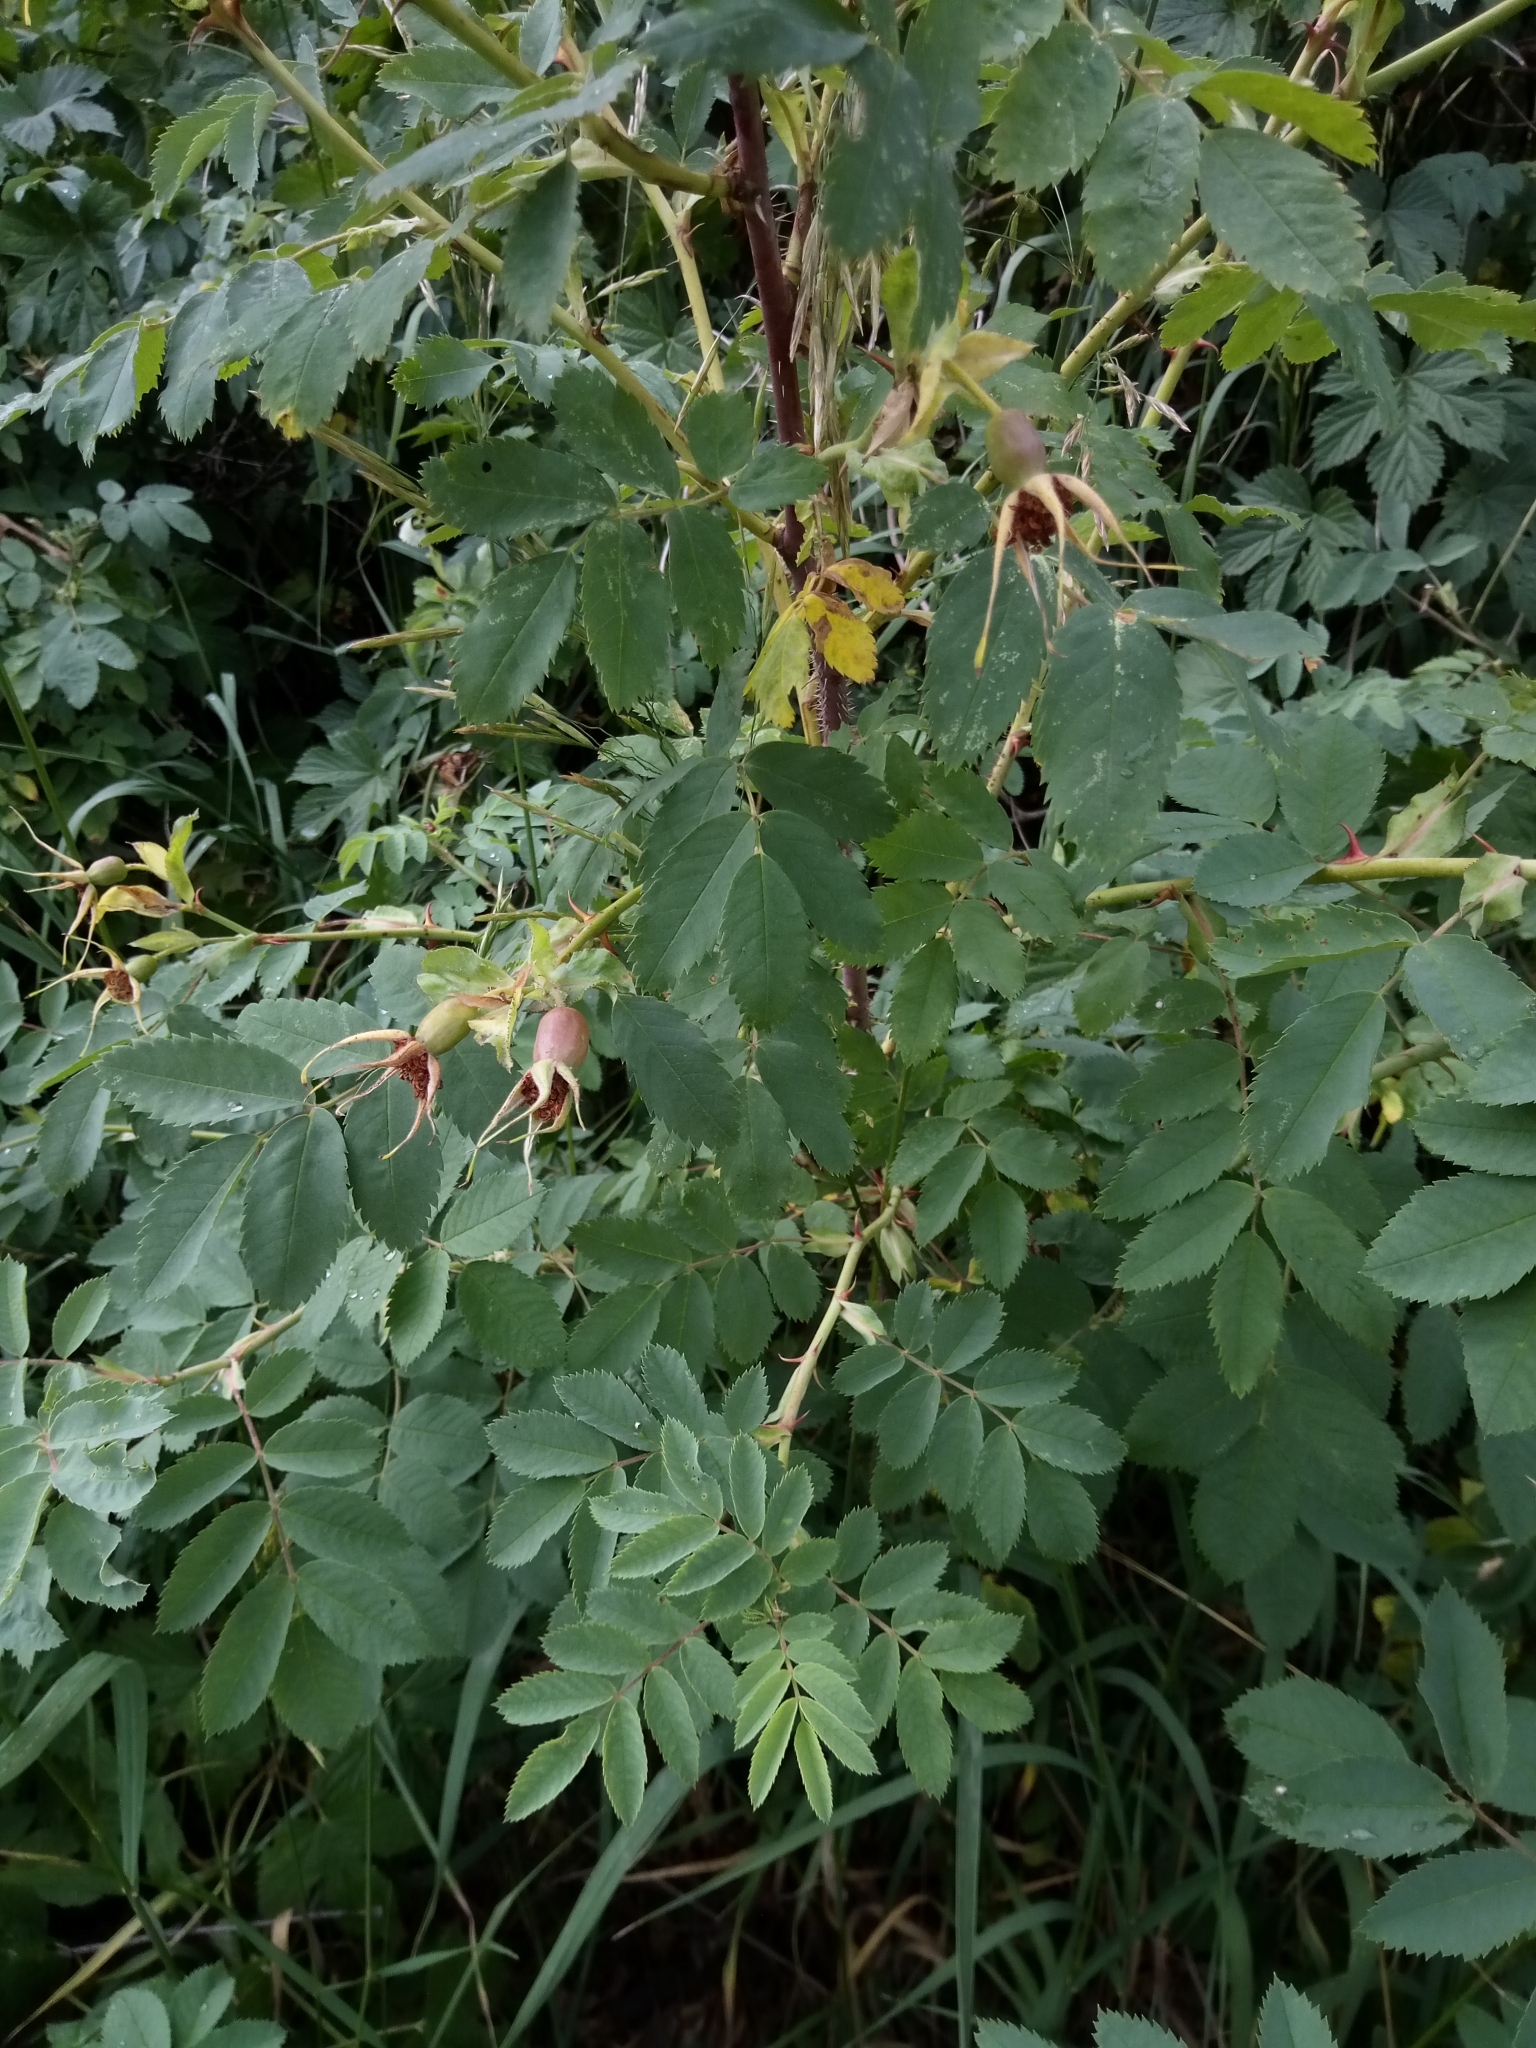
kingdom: Plantae
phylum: Tracheophyta
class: Magnoliopsida
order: Rosales
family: Rosaceae
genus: Rosa
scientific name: Rosa majalis
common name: Cinnamon rose
